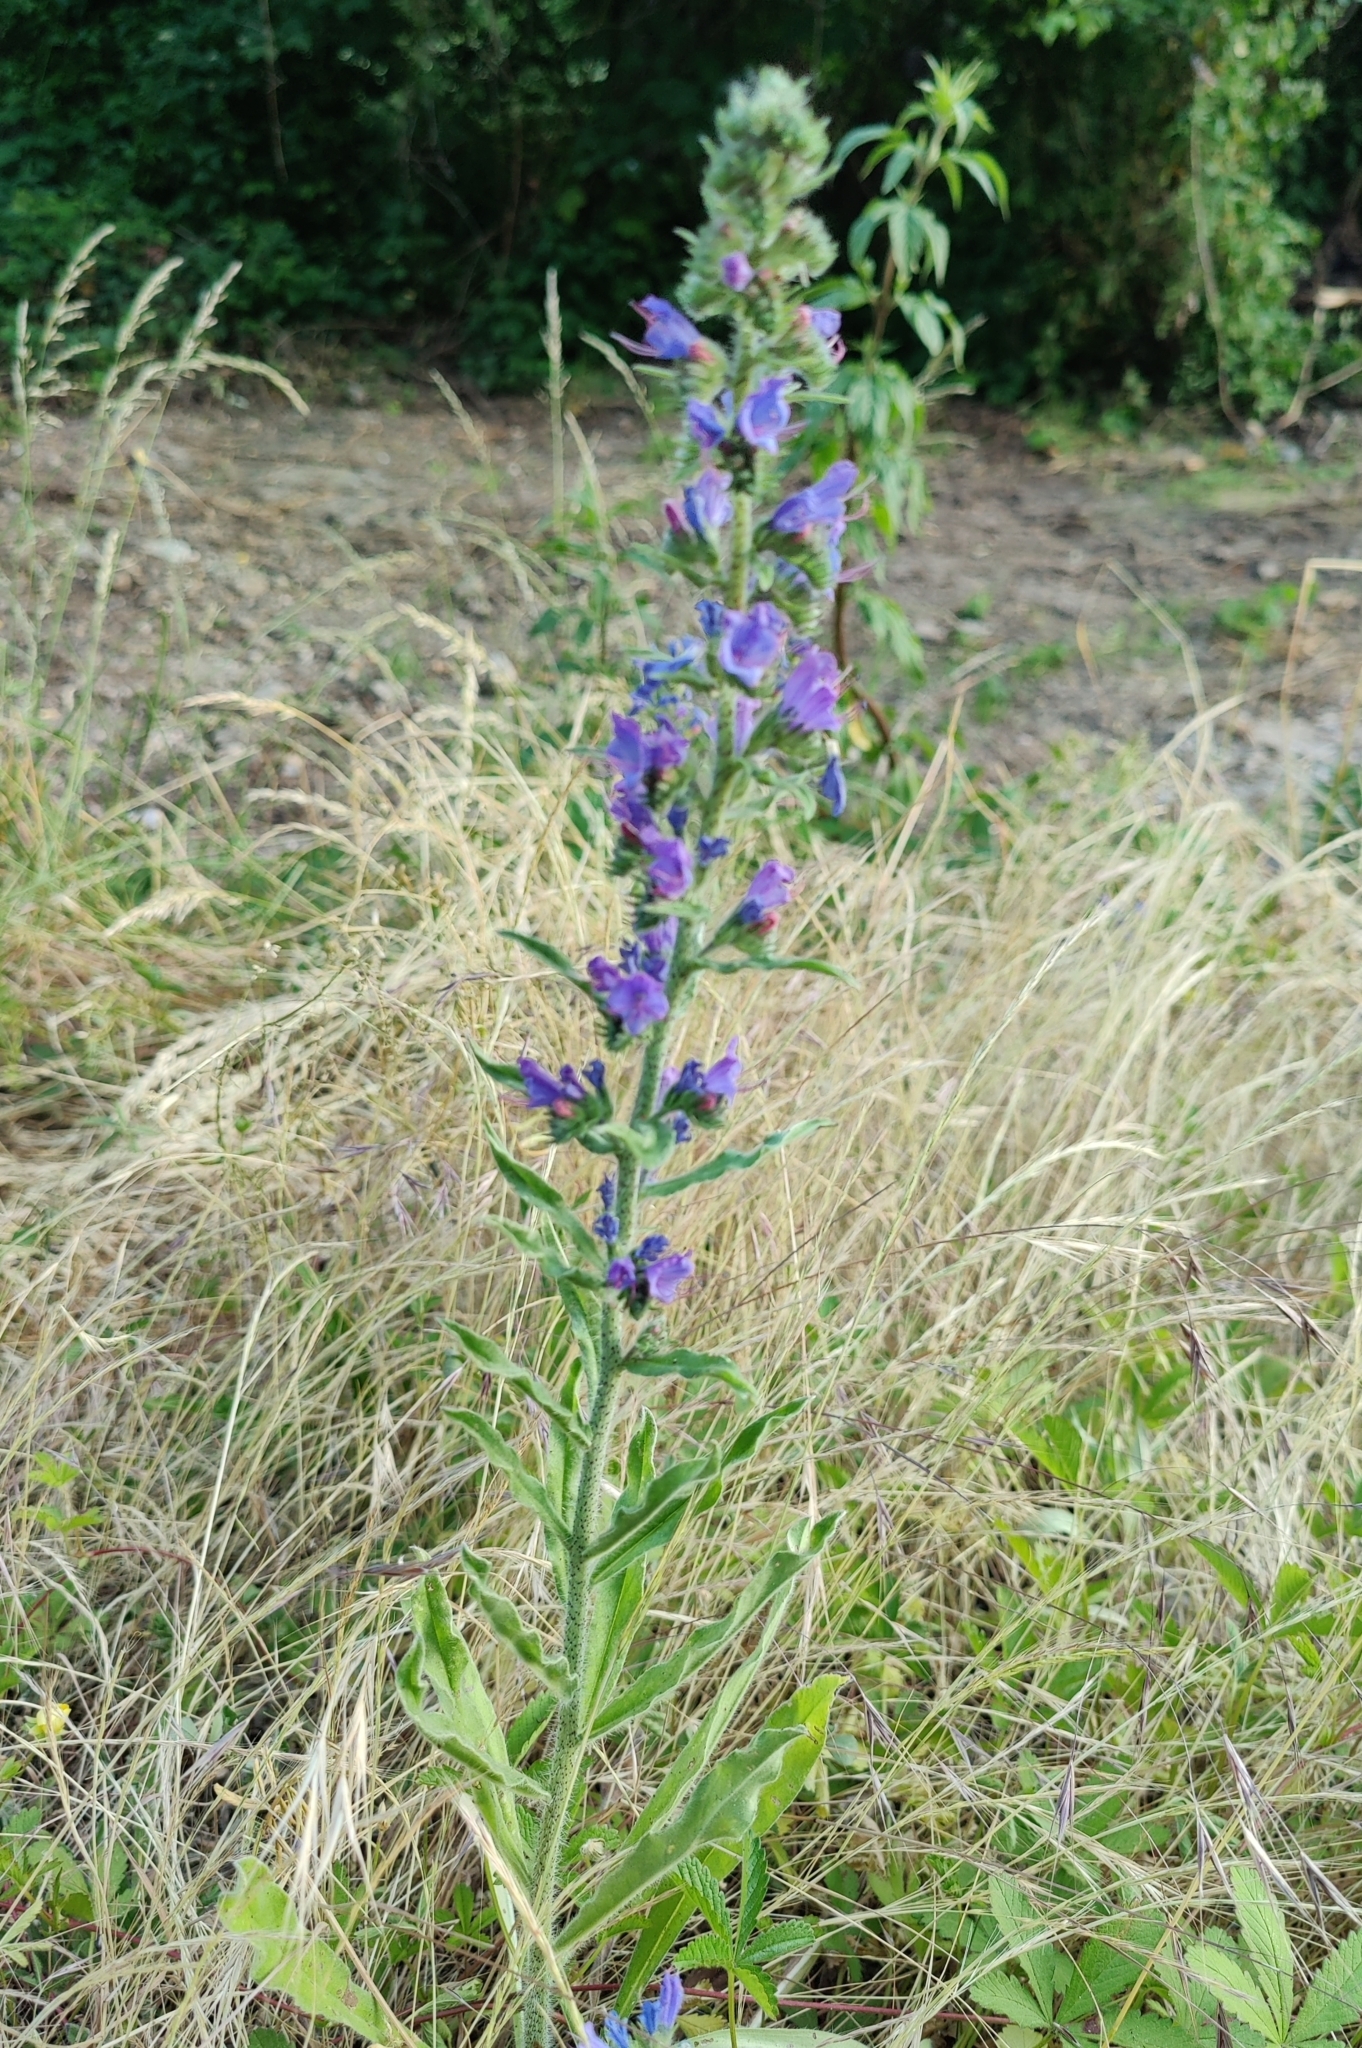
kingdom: Plantae
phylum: Tracheophyta
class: Magnoliopsida
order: Boraginales
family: Boraginaceae
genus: Echium
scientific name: Echium vulgare
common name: Common viper's bugloss
